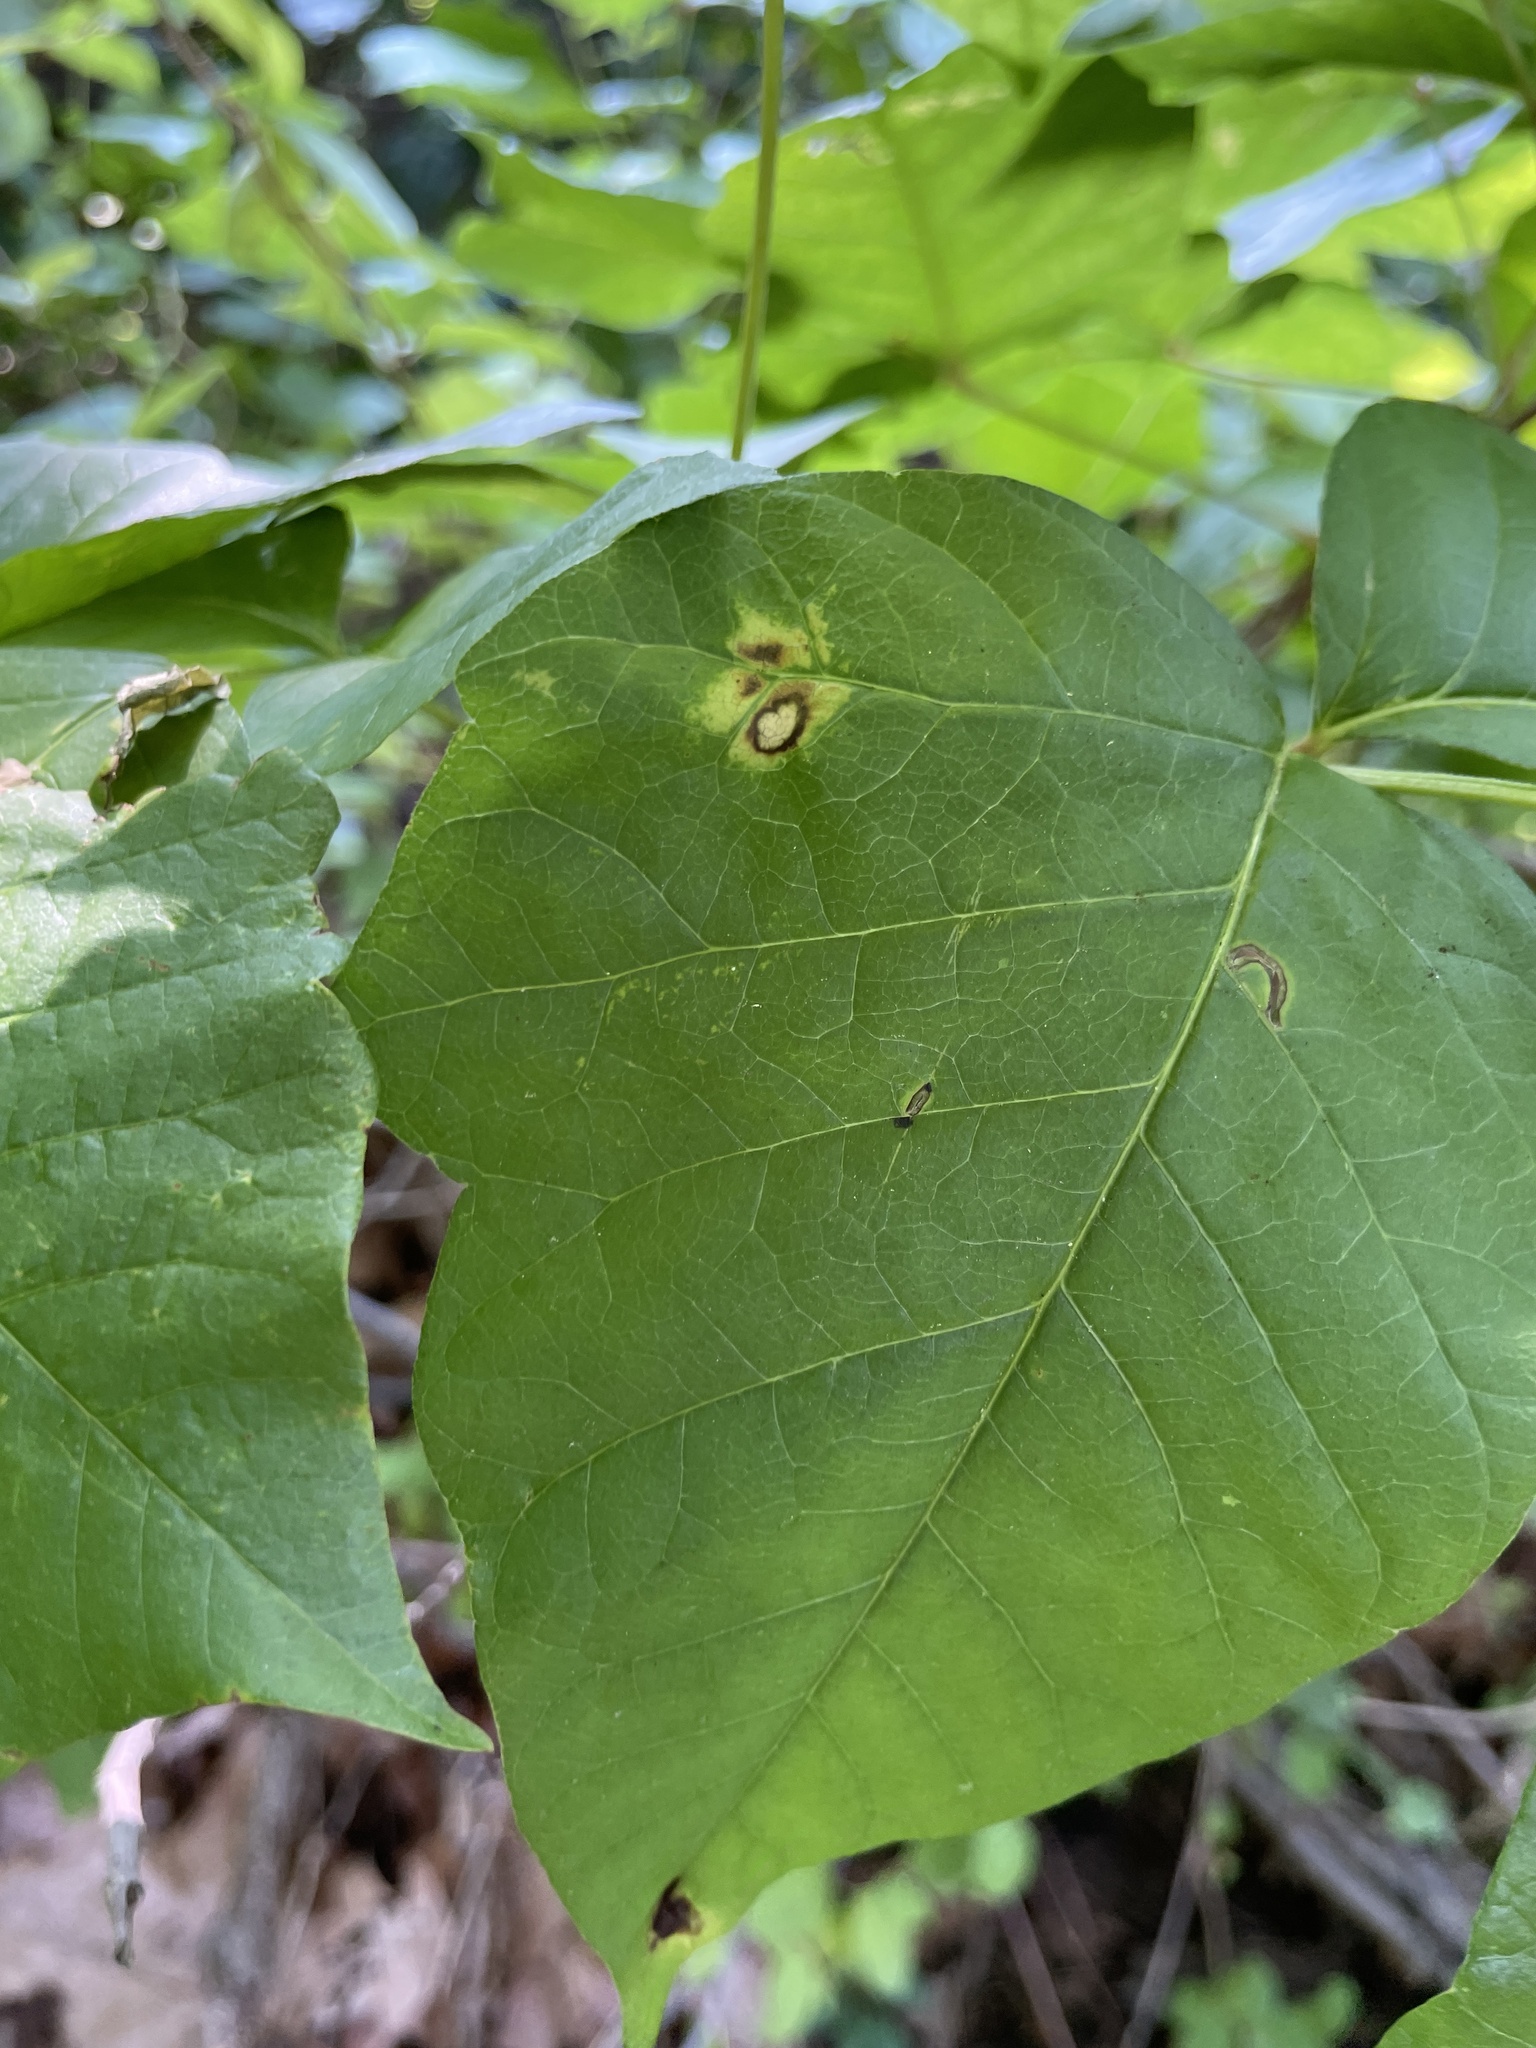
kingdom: Fungi
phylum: Basidiomycota
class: Pucciniomycetes
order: Pucciniales
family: Pileolariaceae
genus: Pileolaria
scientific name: Pileolaria brevipes
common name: Poison ivy rust
